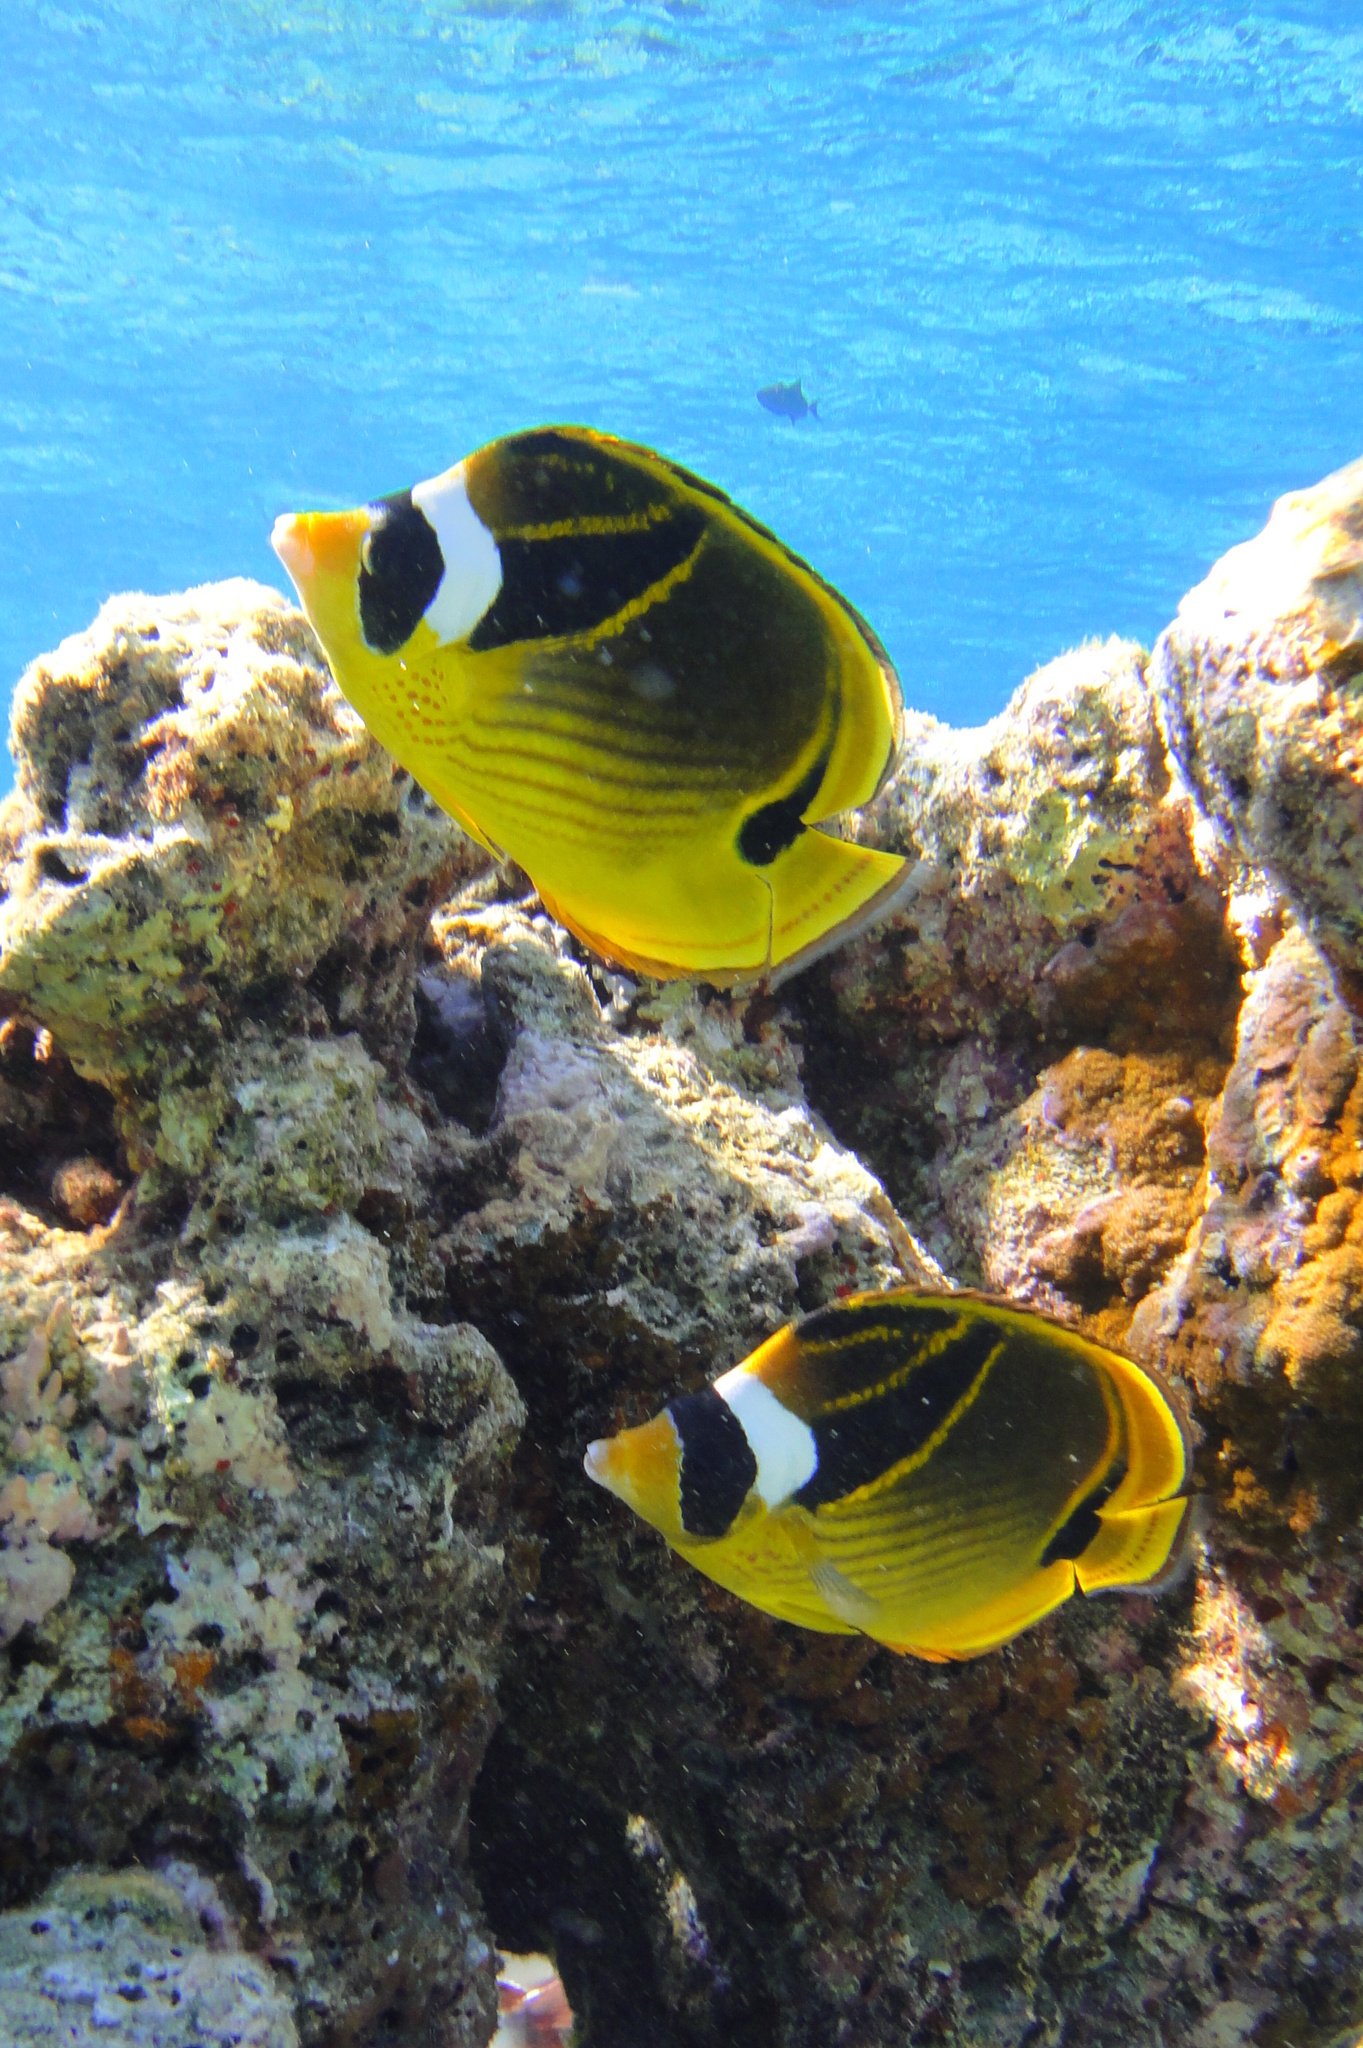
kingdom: Animalia
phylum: Chordata
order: Perciformes
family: Chaetodontidae
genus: Chaetodon
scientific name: Chaetodon lunula
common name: Raccoon butterflyfish
